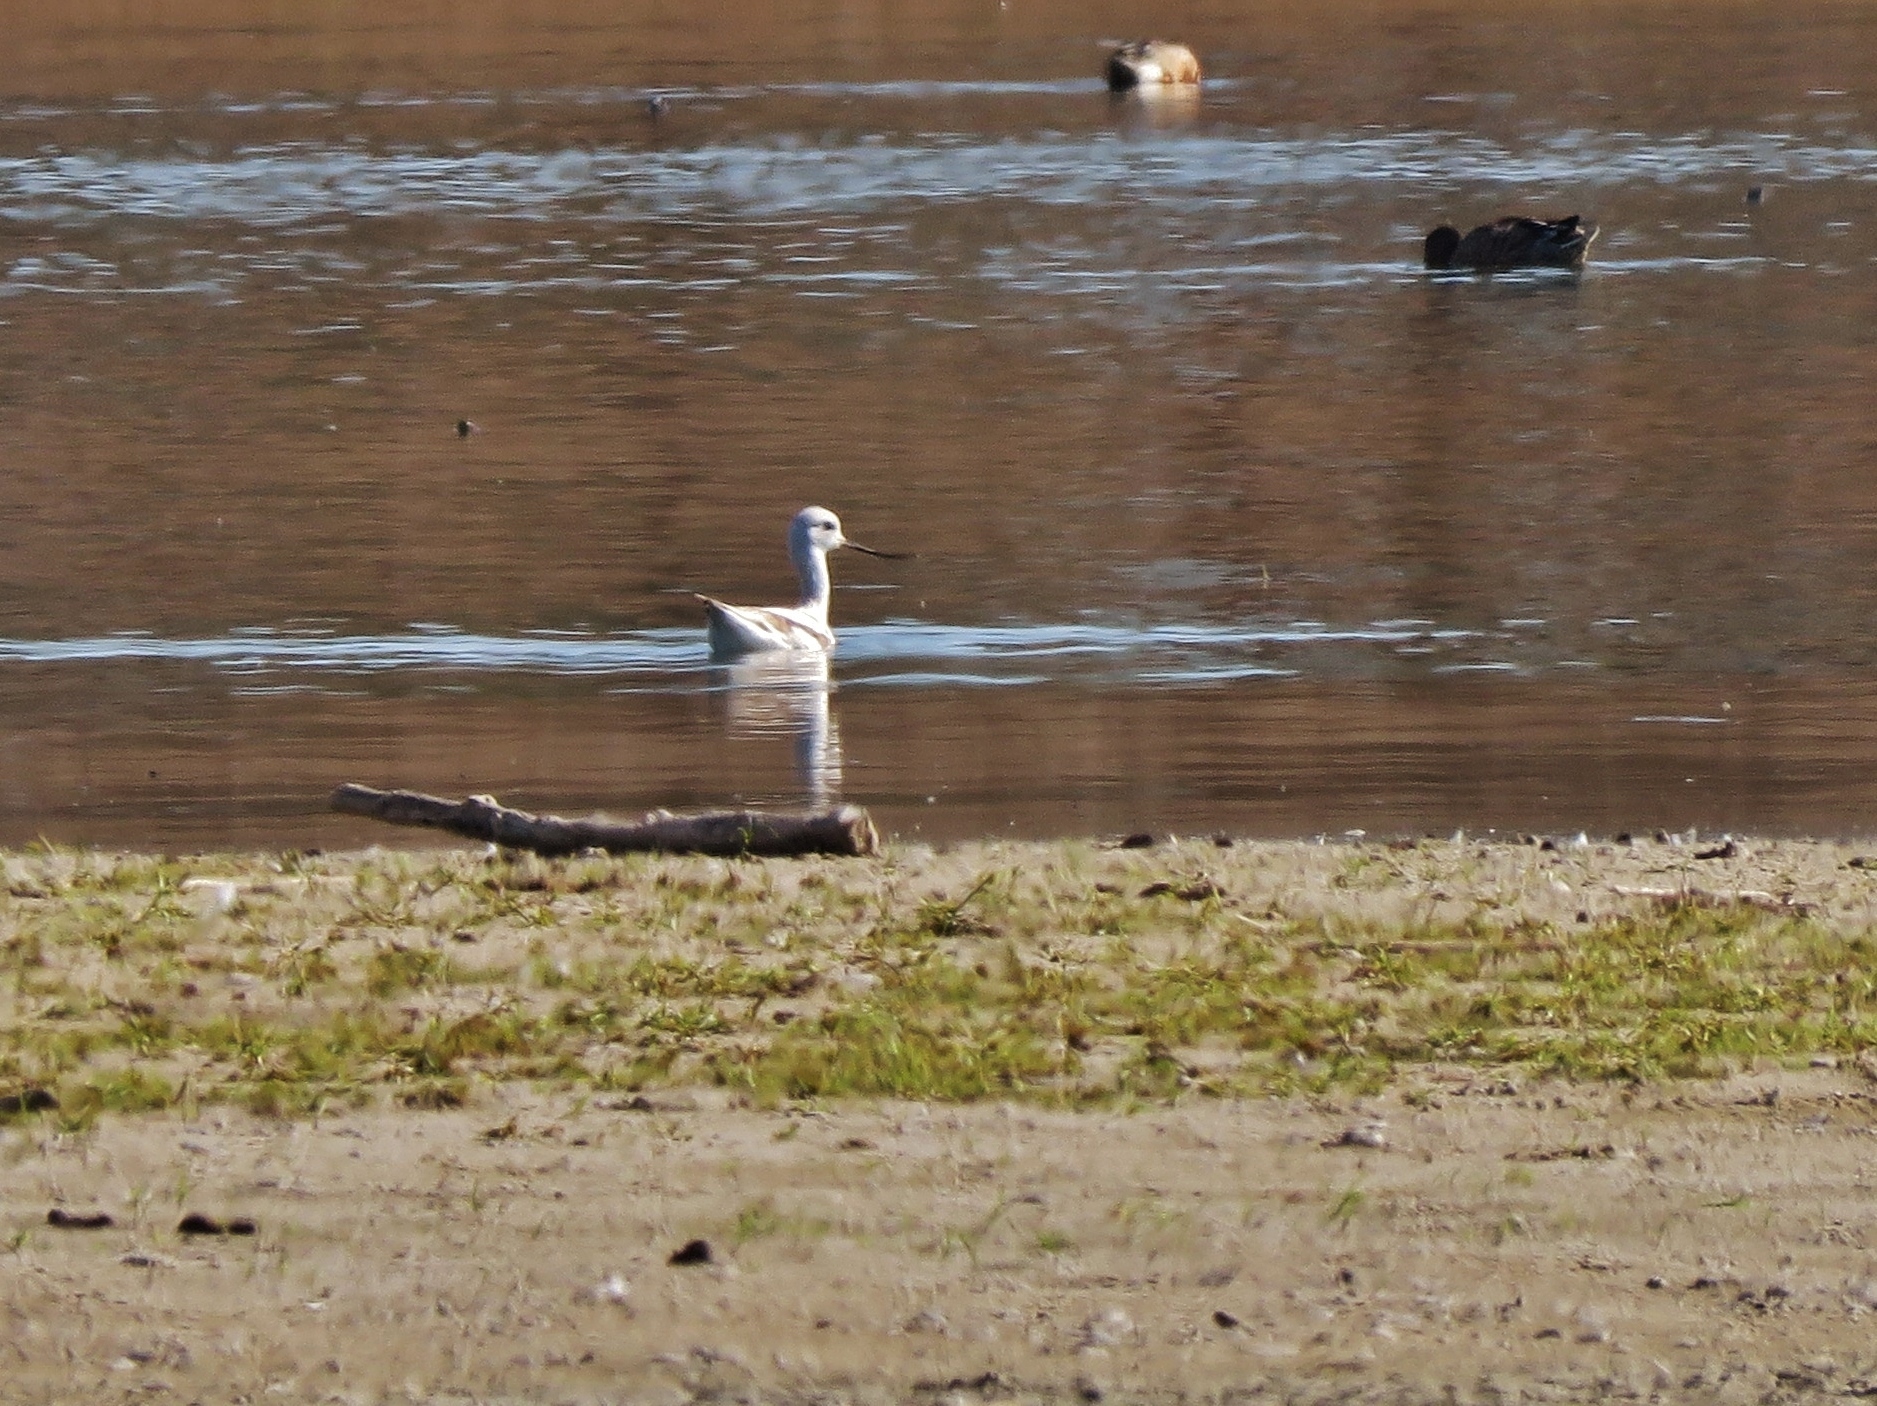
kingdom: Animalia
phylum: Chordata
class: Aves
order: Charadriiformes
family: Recurvirostridae
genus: Recurvirostra
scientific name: Recurvirostra americana
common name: American avocet
